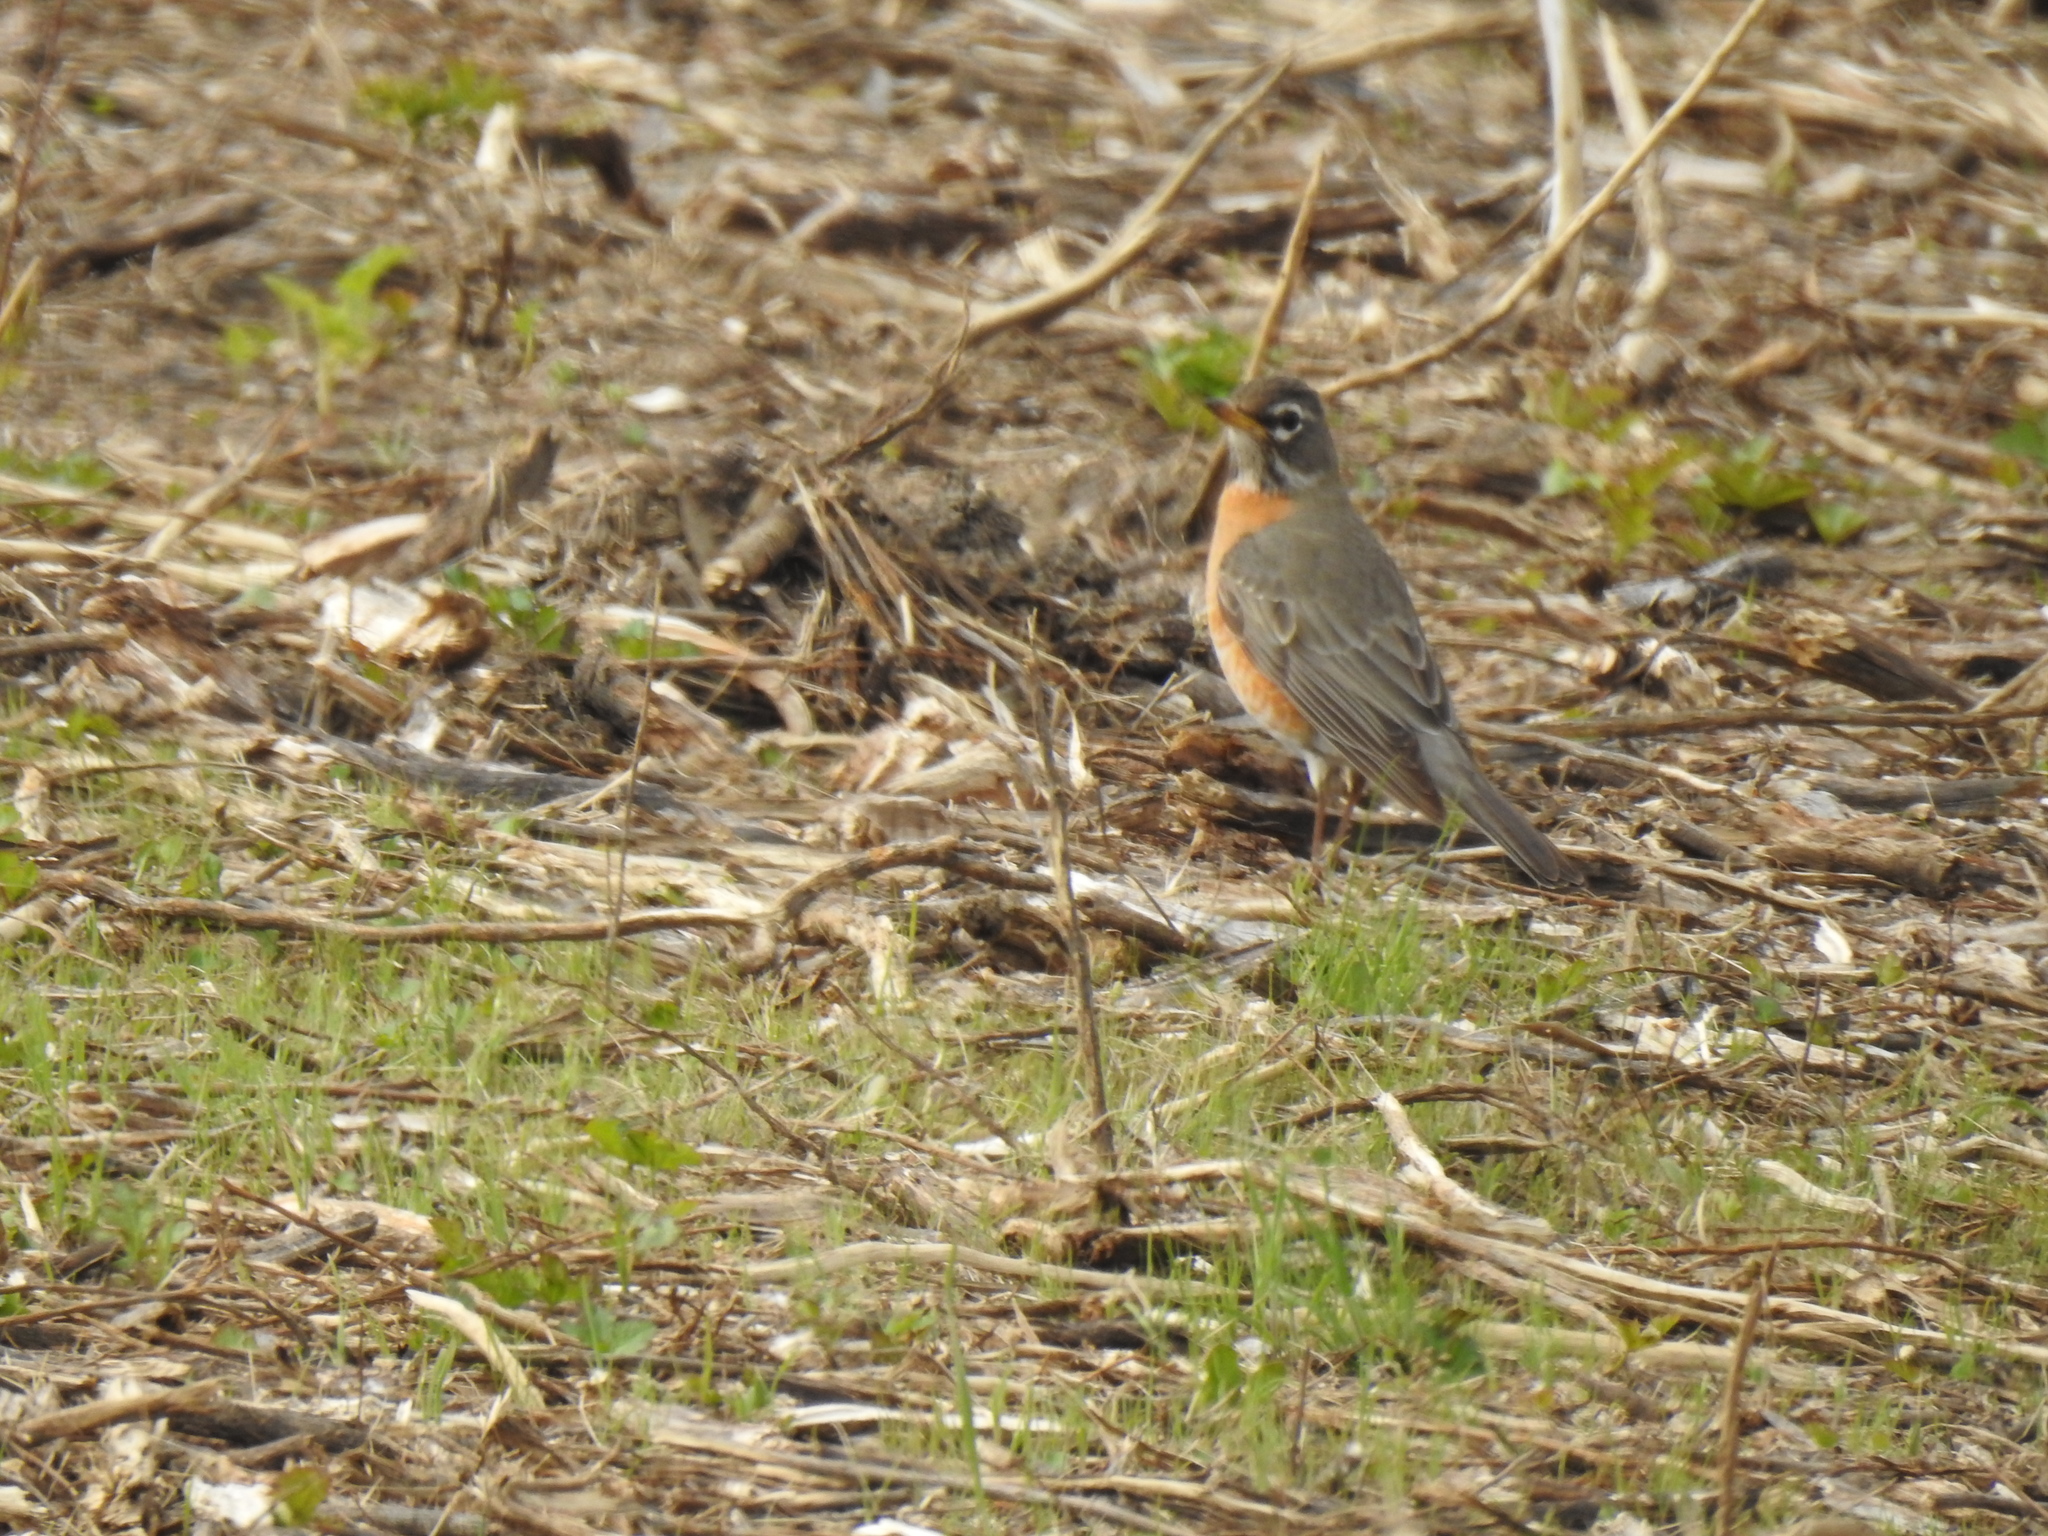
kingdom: Animalia
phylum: Chordata
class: Aves
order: Passeriformes
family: Turdidae
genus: Turdus
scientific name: Turdus migratorius
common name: American robin
